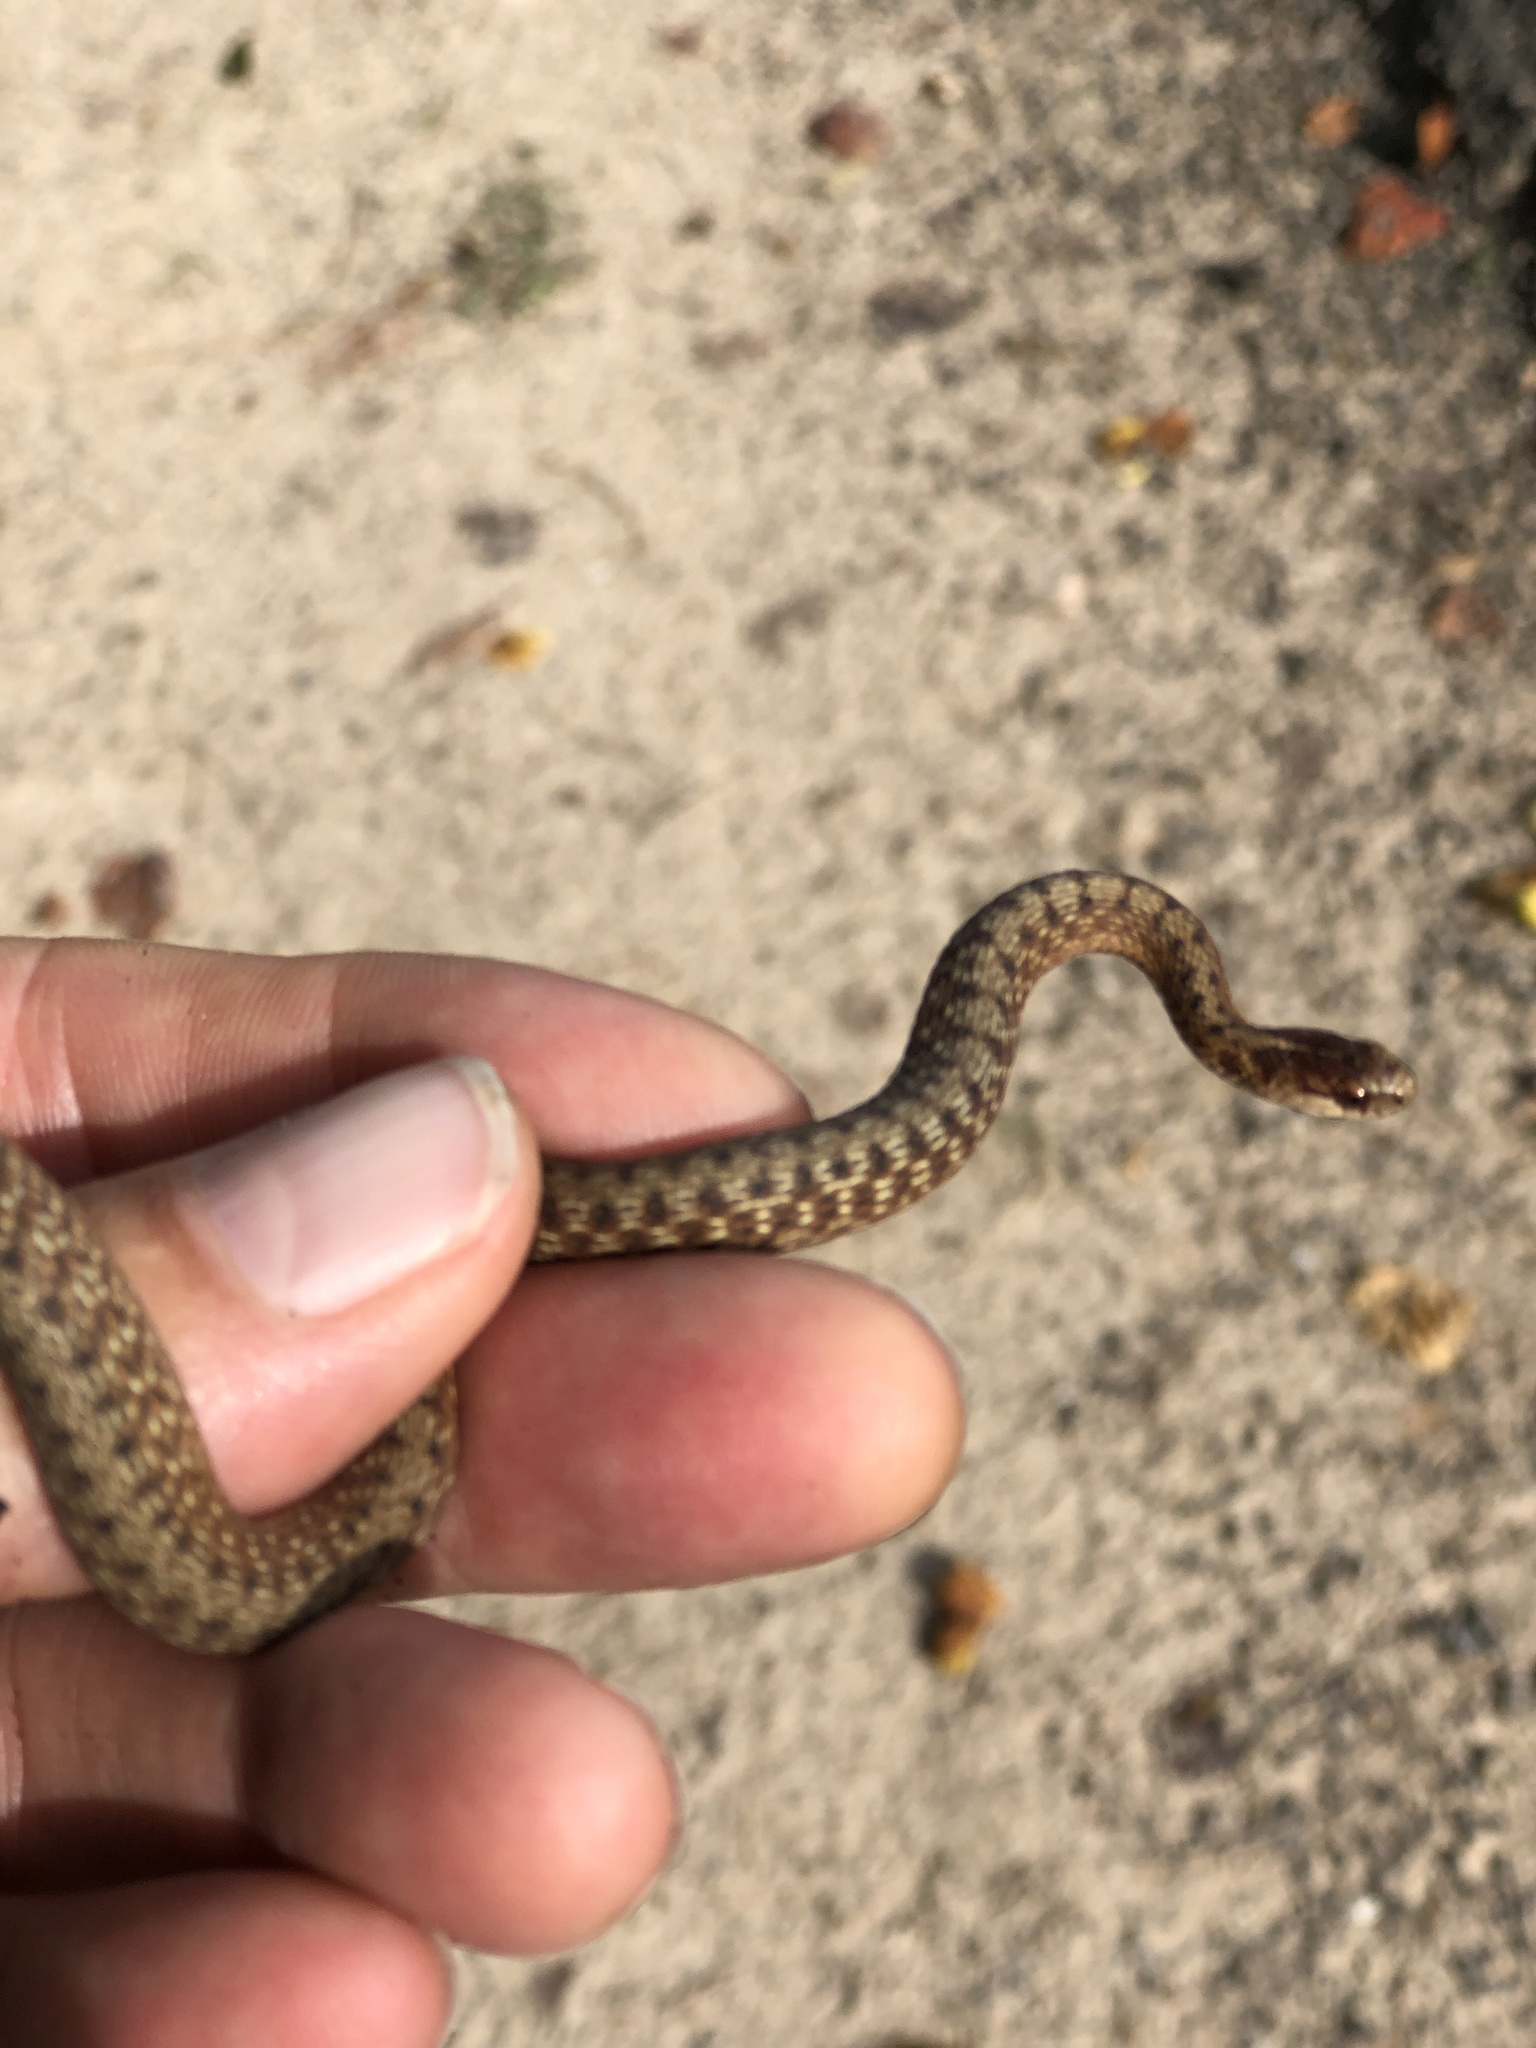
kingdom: Animalia
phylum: Chordata
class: Squamata
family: Colubridae
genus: Storeria
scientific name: Storeria dekayi
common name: (dekay’s) brown snake
